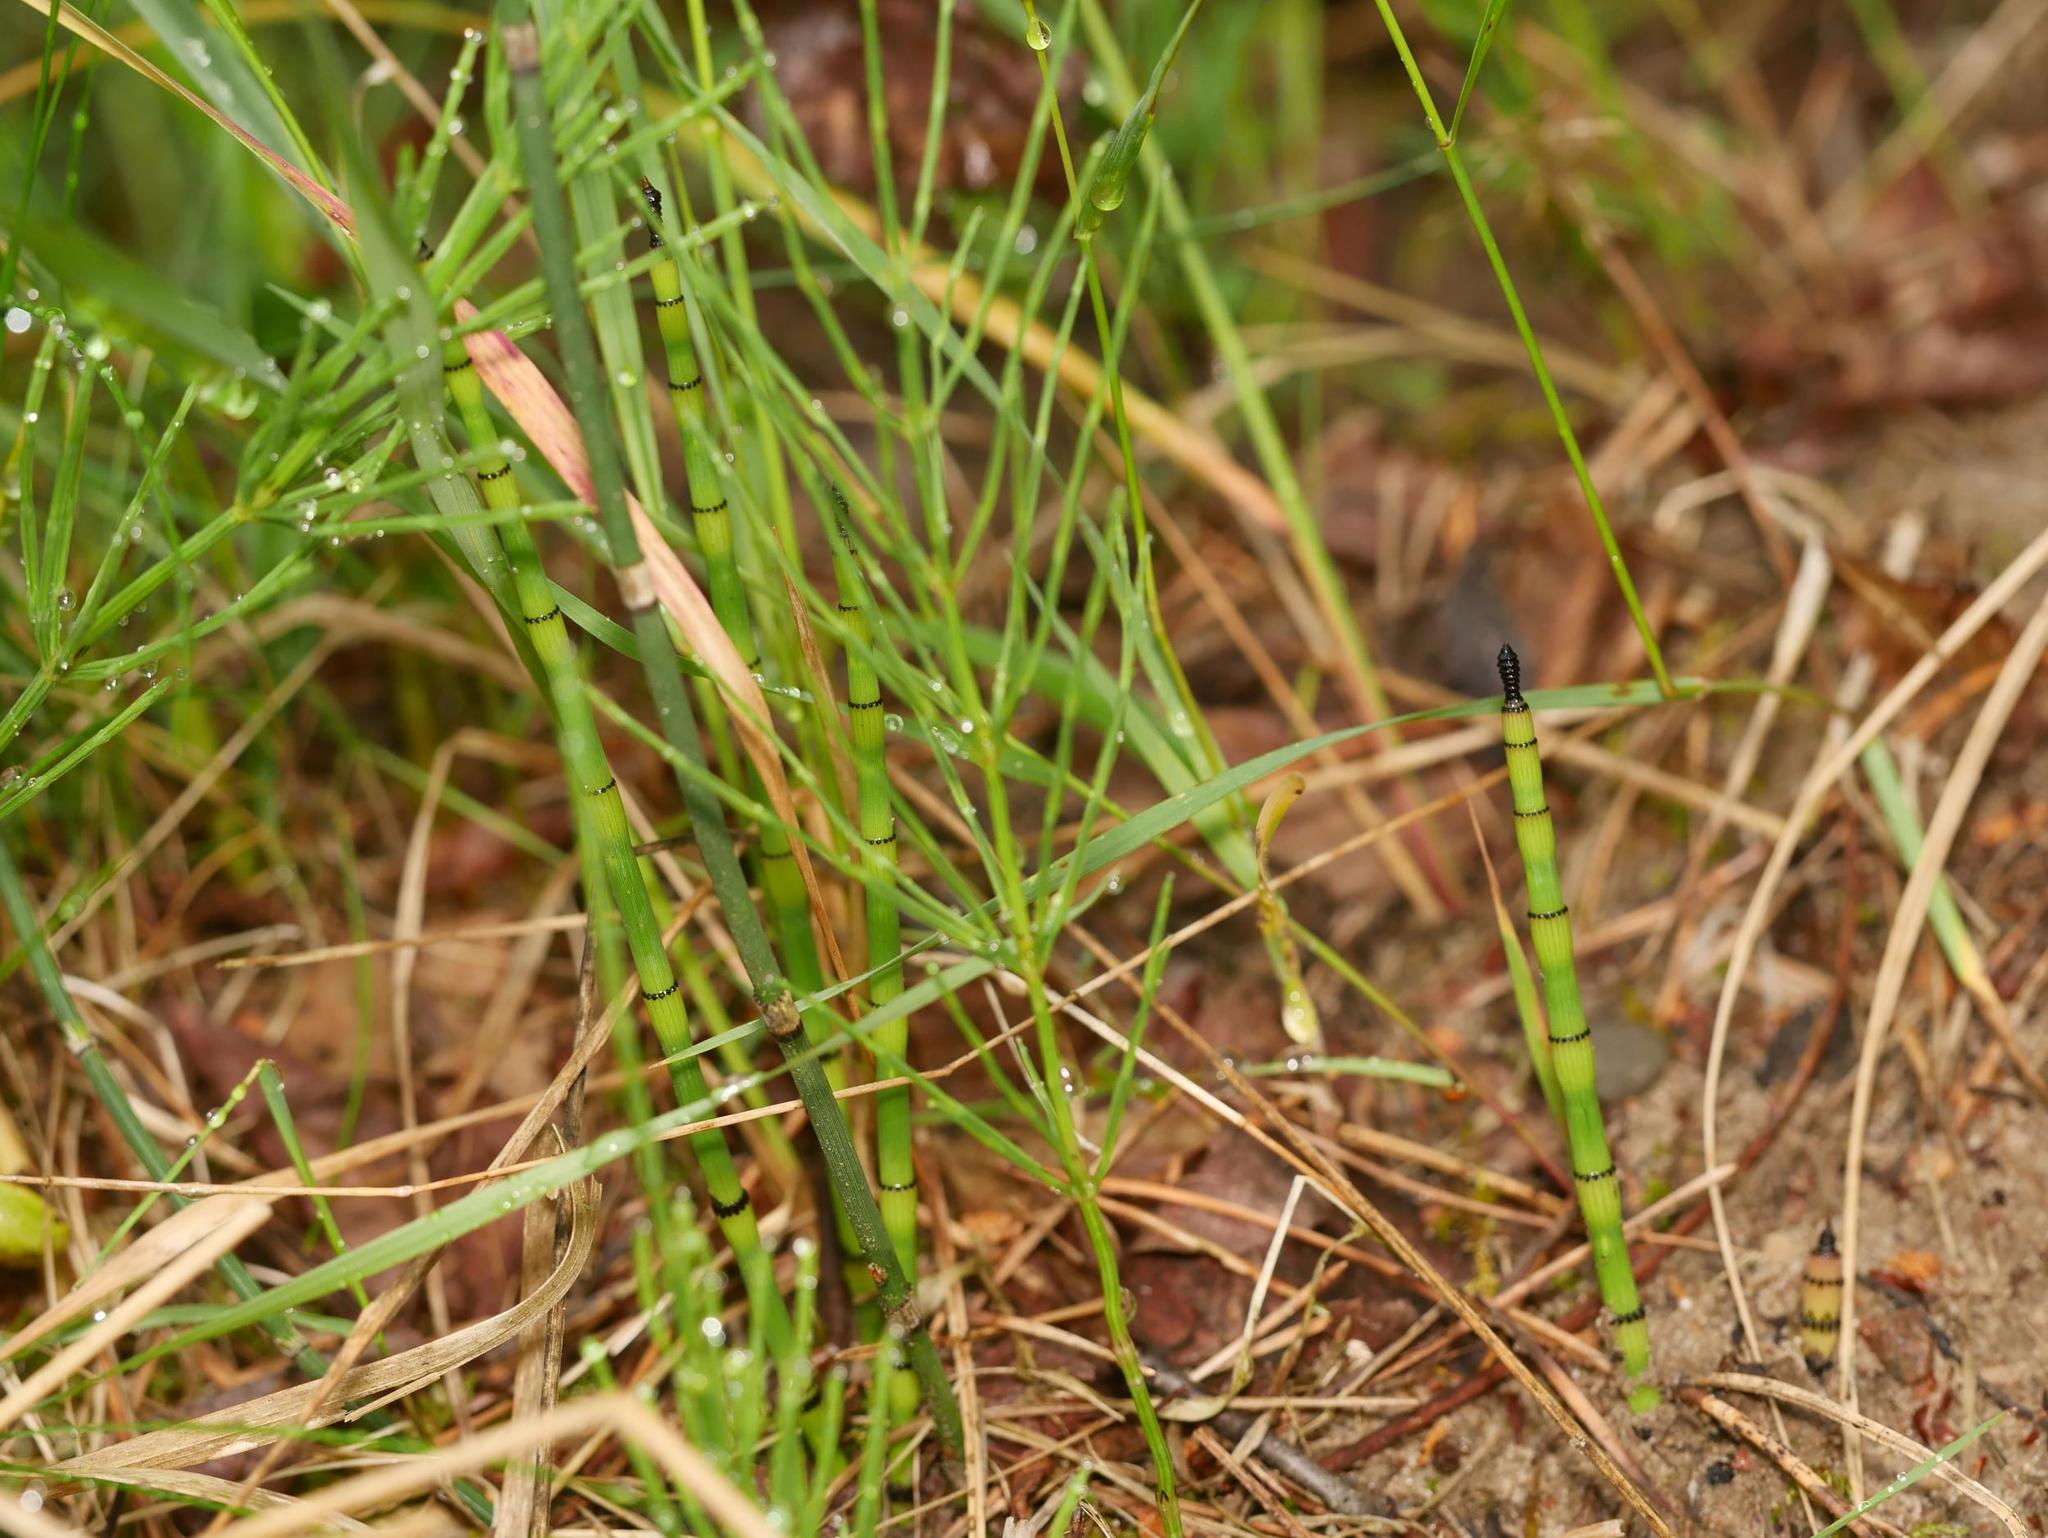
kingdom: Plantae
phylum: Tracheophyta
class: Polypodiopsida
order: Equisetales
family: Equisetaceae
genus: Equisetum
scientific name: Equisetum hyemale
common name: Rough horsetail
